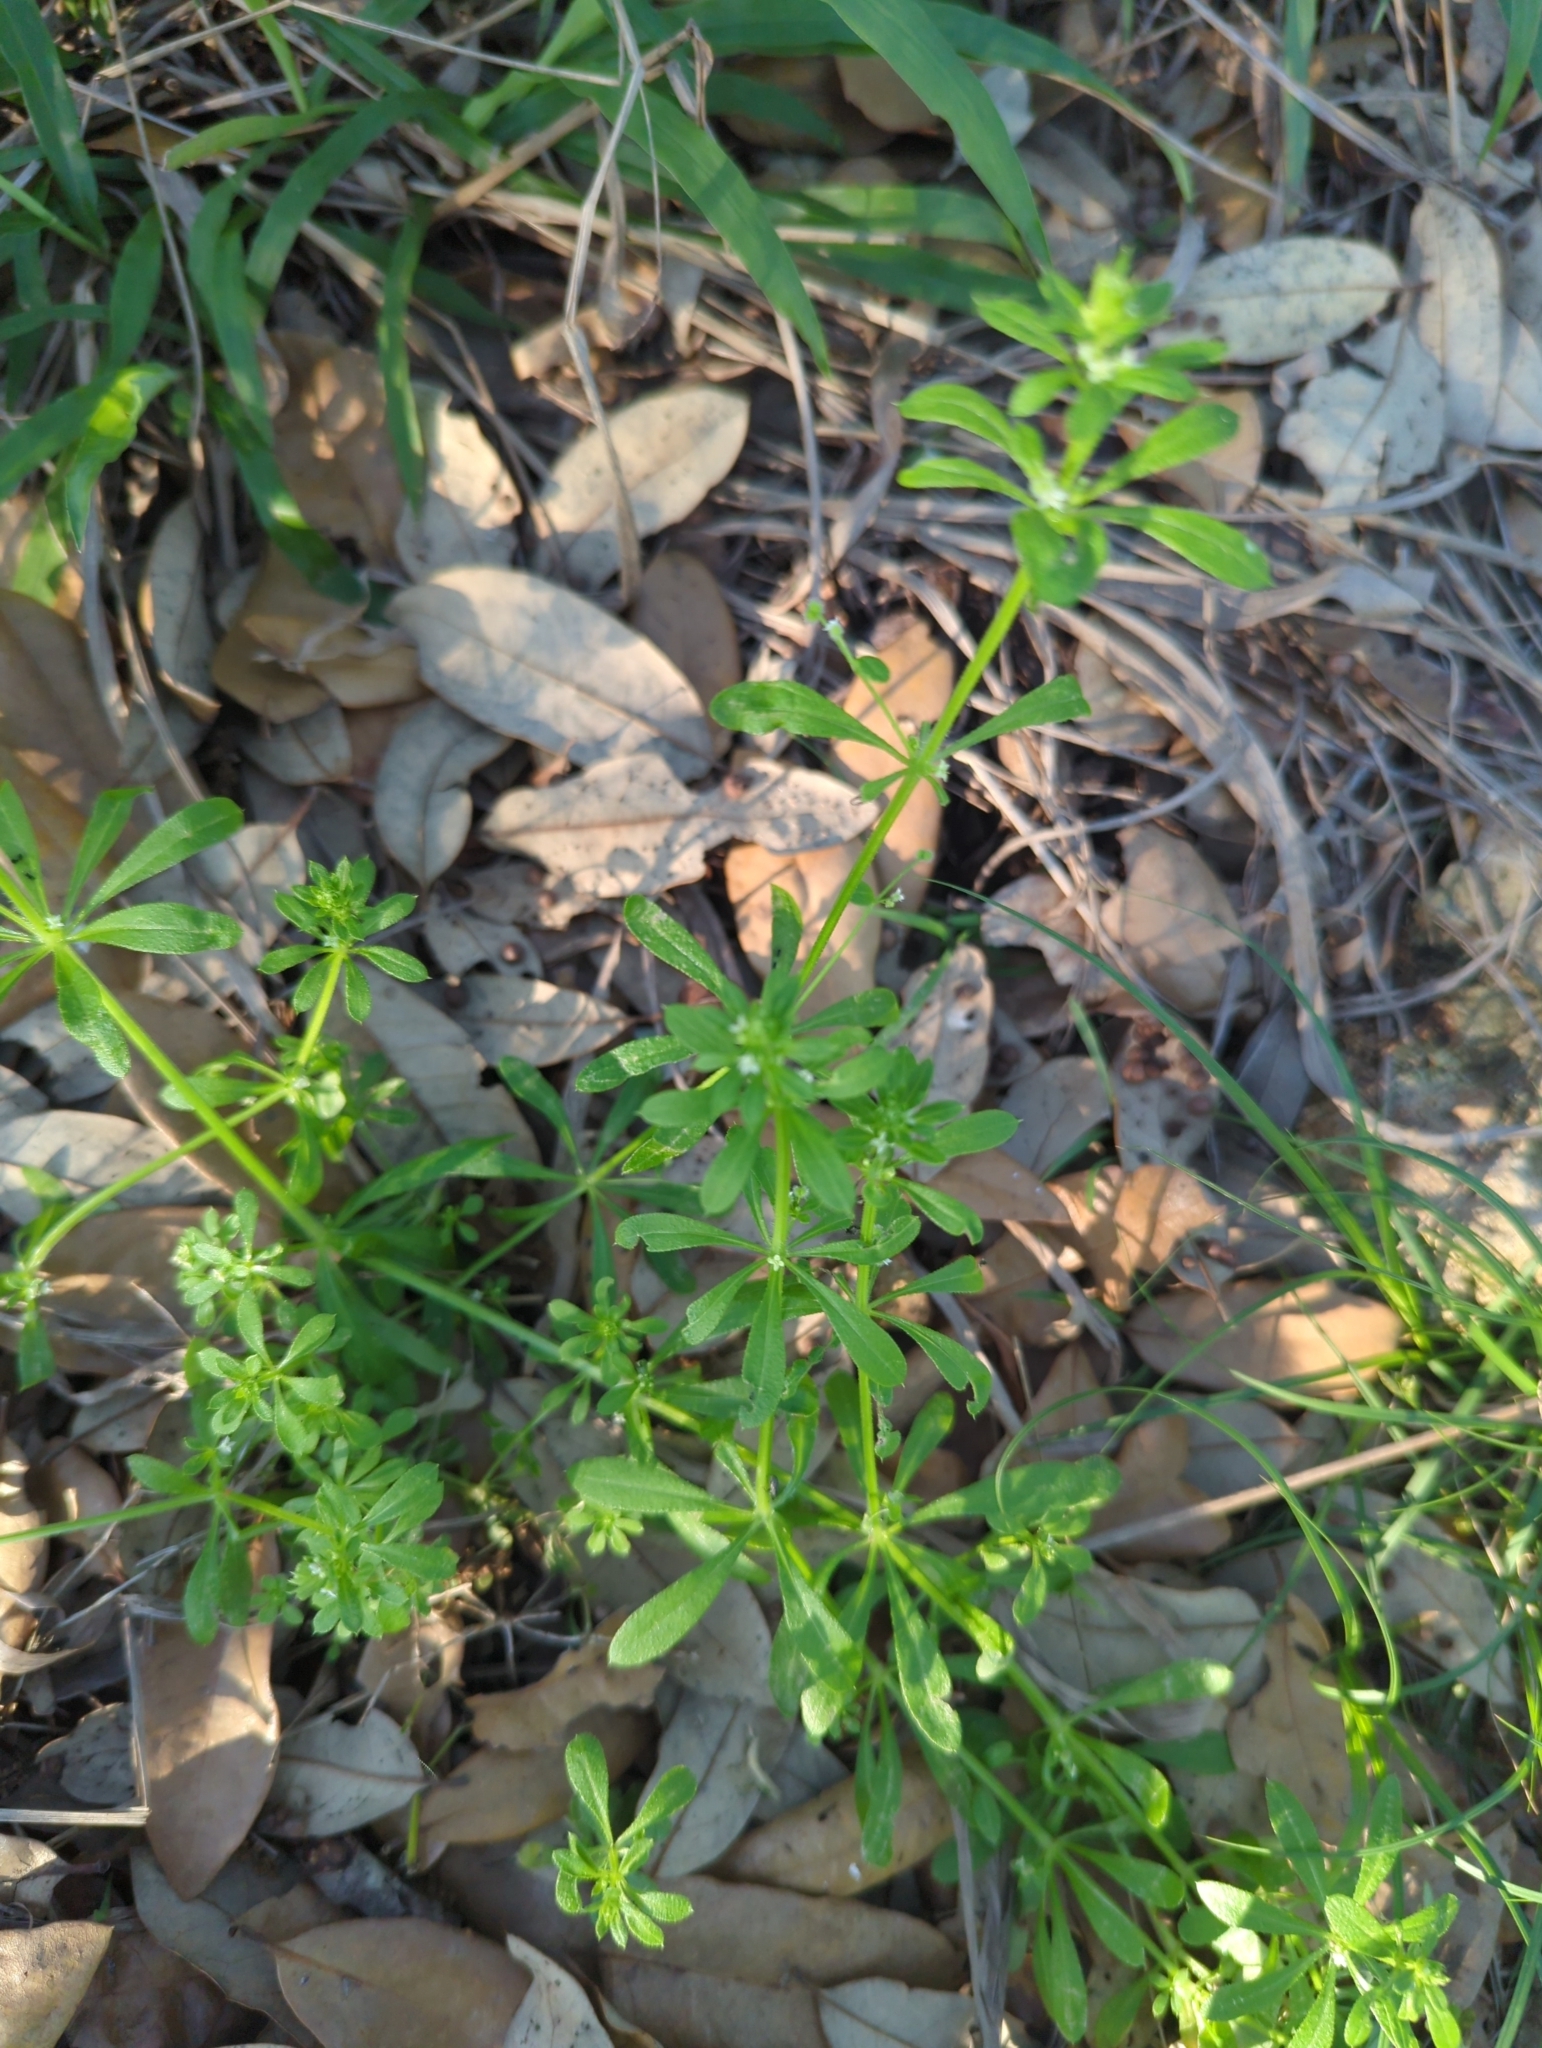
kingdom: Plantae
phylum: Tracheophyta
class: Magnoliopsida
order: Gentianales
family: Rubiaceae
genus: Galium
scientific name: Galium aparine
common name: Cleavers
